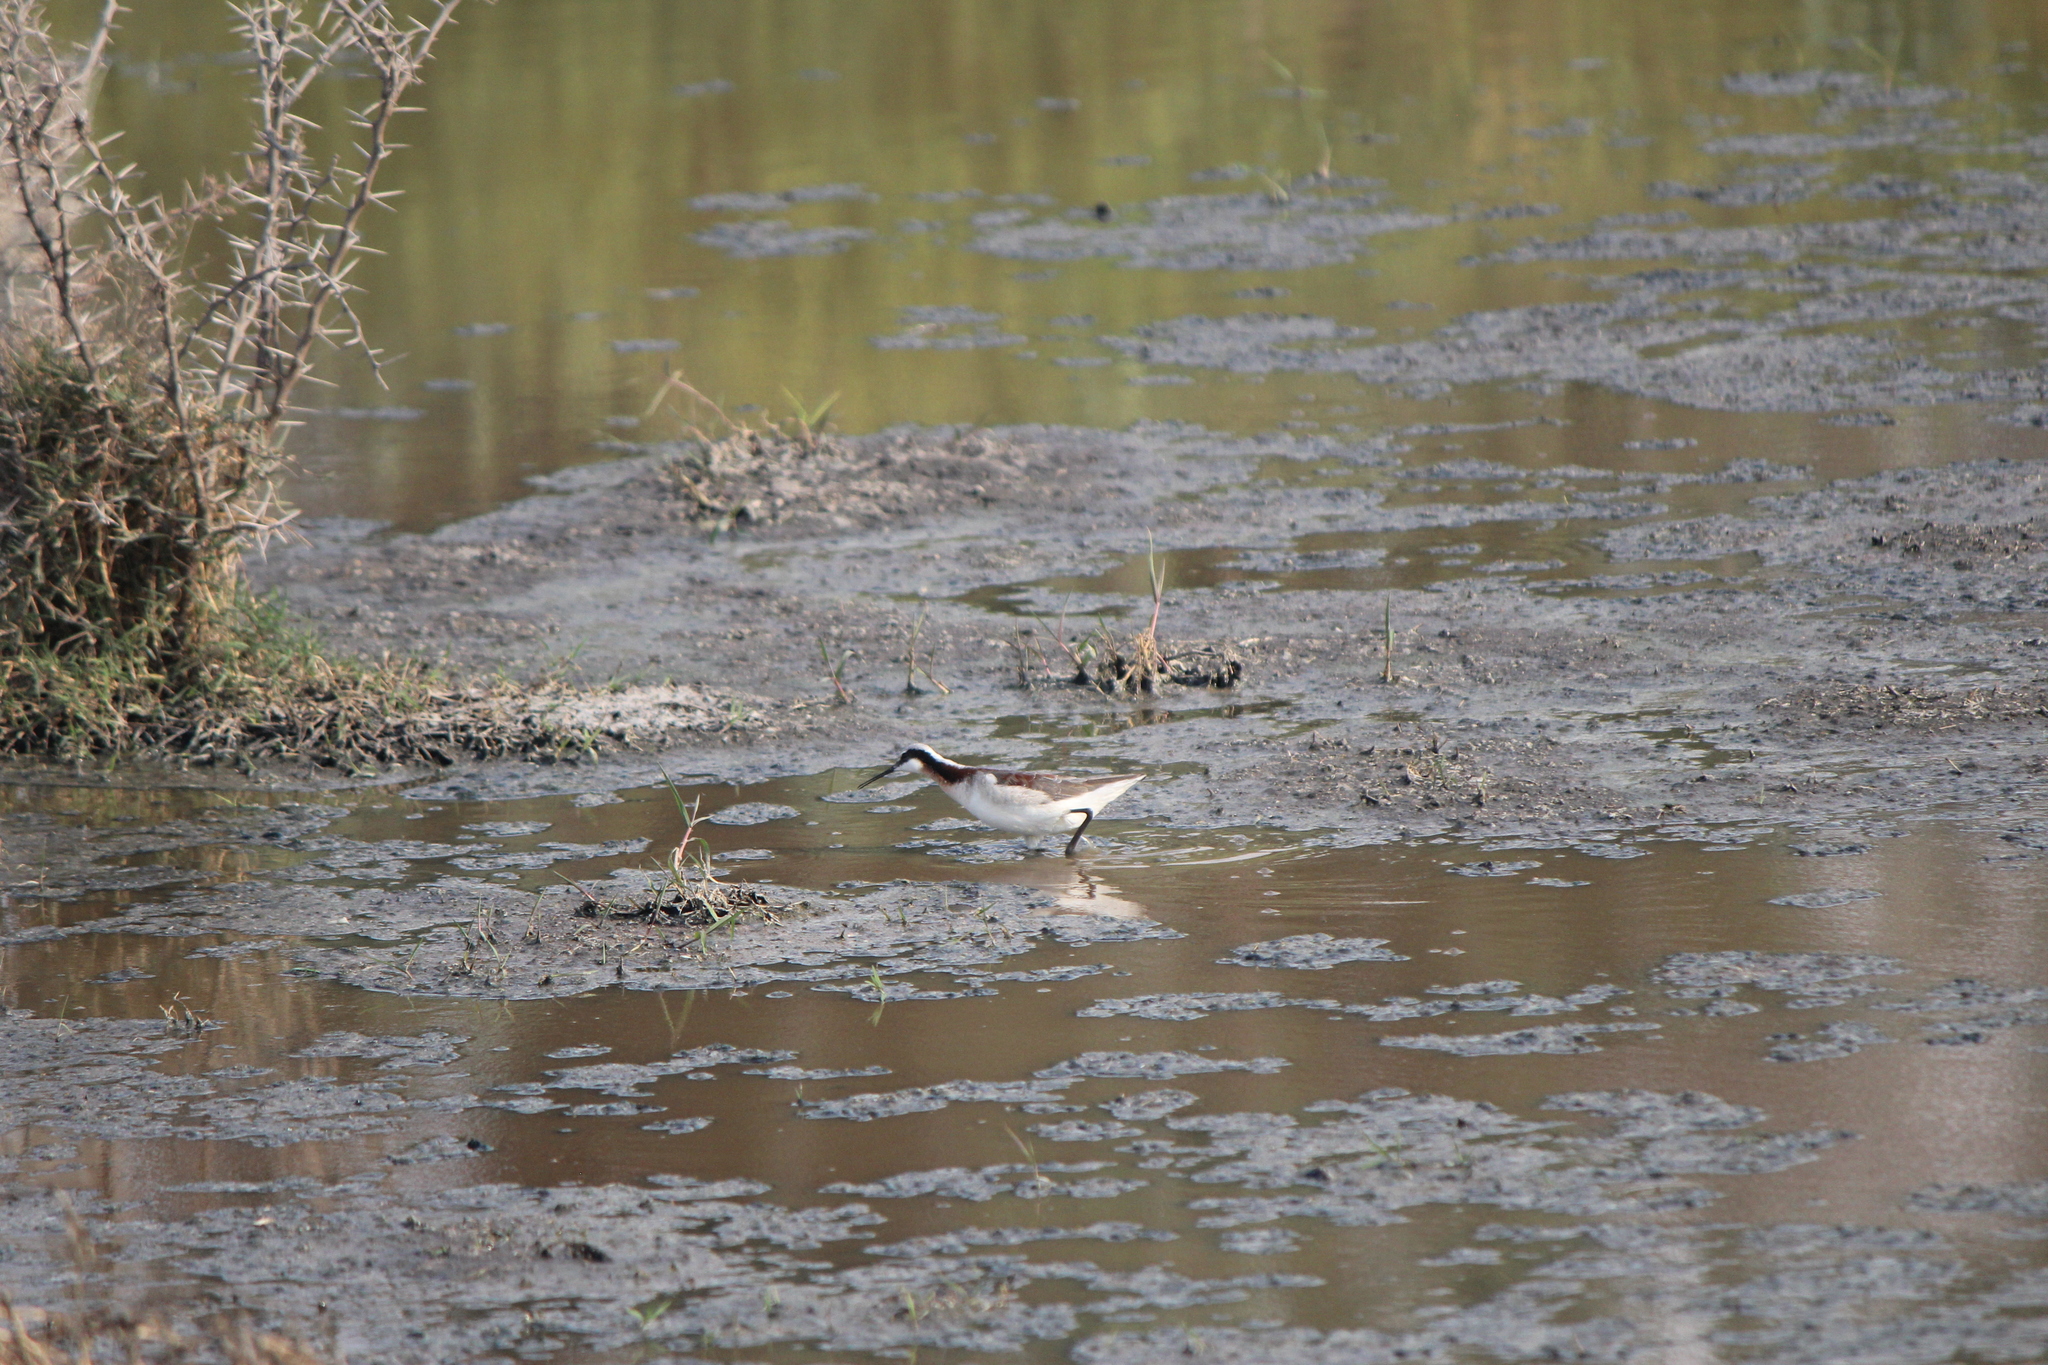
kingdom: Animalia
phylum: Chordata
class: Aves
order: Charadriiformes
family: Scolopacidae
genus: Phalaropus
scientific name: Phalaropus tricolor
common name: Wilson's phalarope
